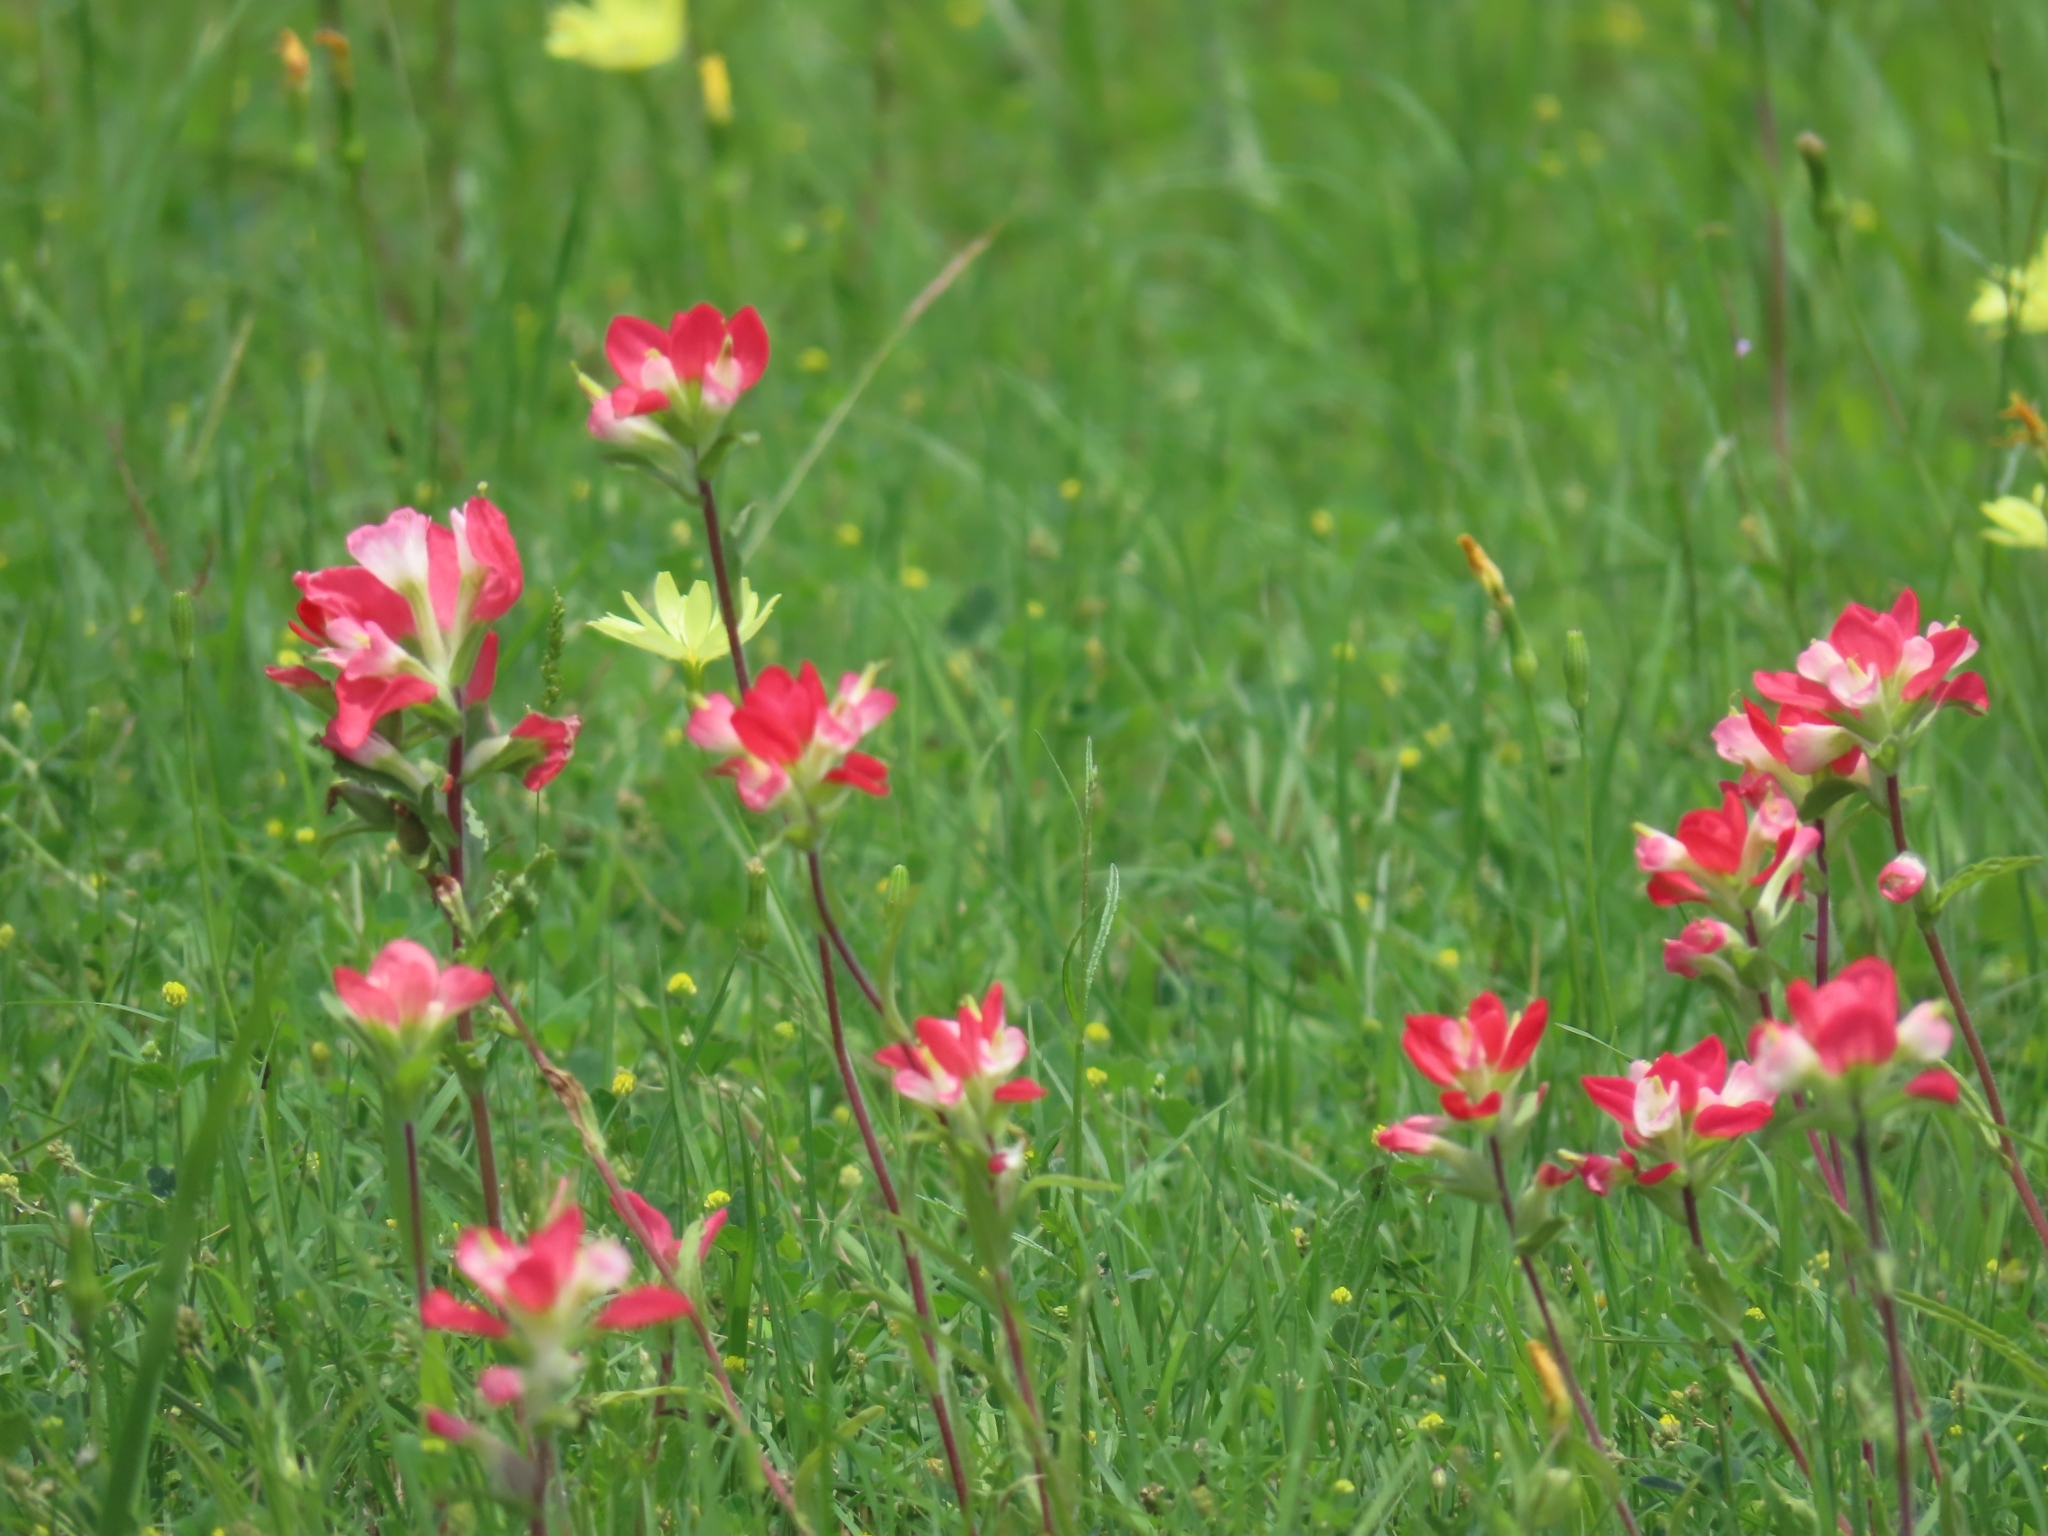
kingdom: Plantae
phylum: Tracheophyta
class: Magnoliopsida
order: Lamiales
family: Orobanchaceae
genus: Castilleja
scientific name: Castilleja indivisa
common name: Texas paintbrush
